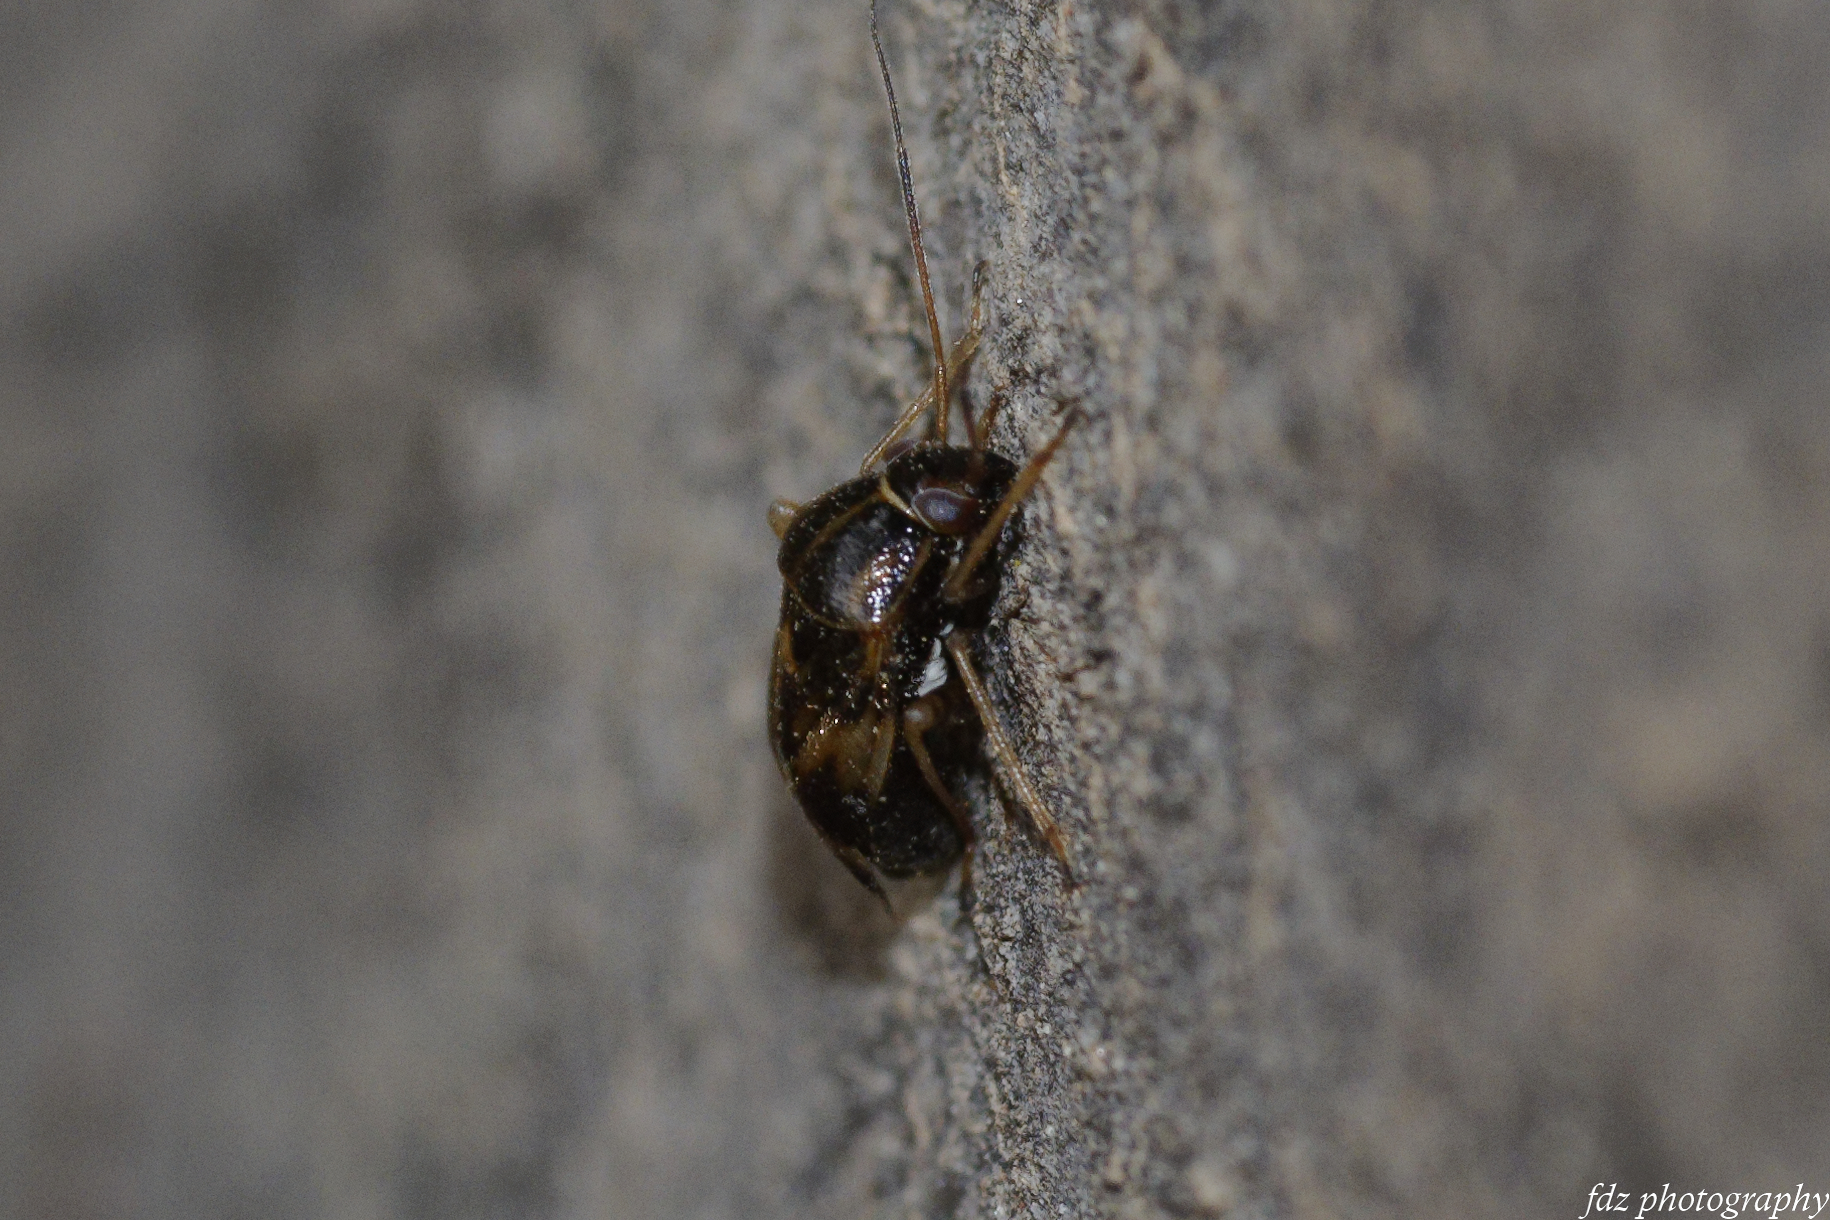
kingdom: Animalia
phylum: Arthropoda
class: Insecta
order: Hemiptera
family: Miridae
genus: Cyphodema
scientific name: Cyphodema instabilis
